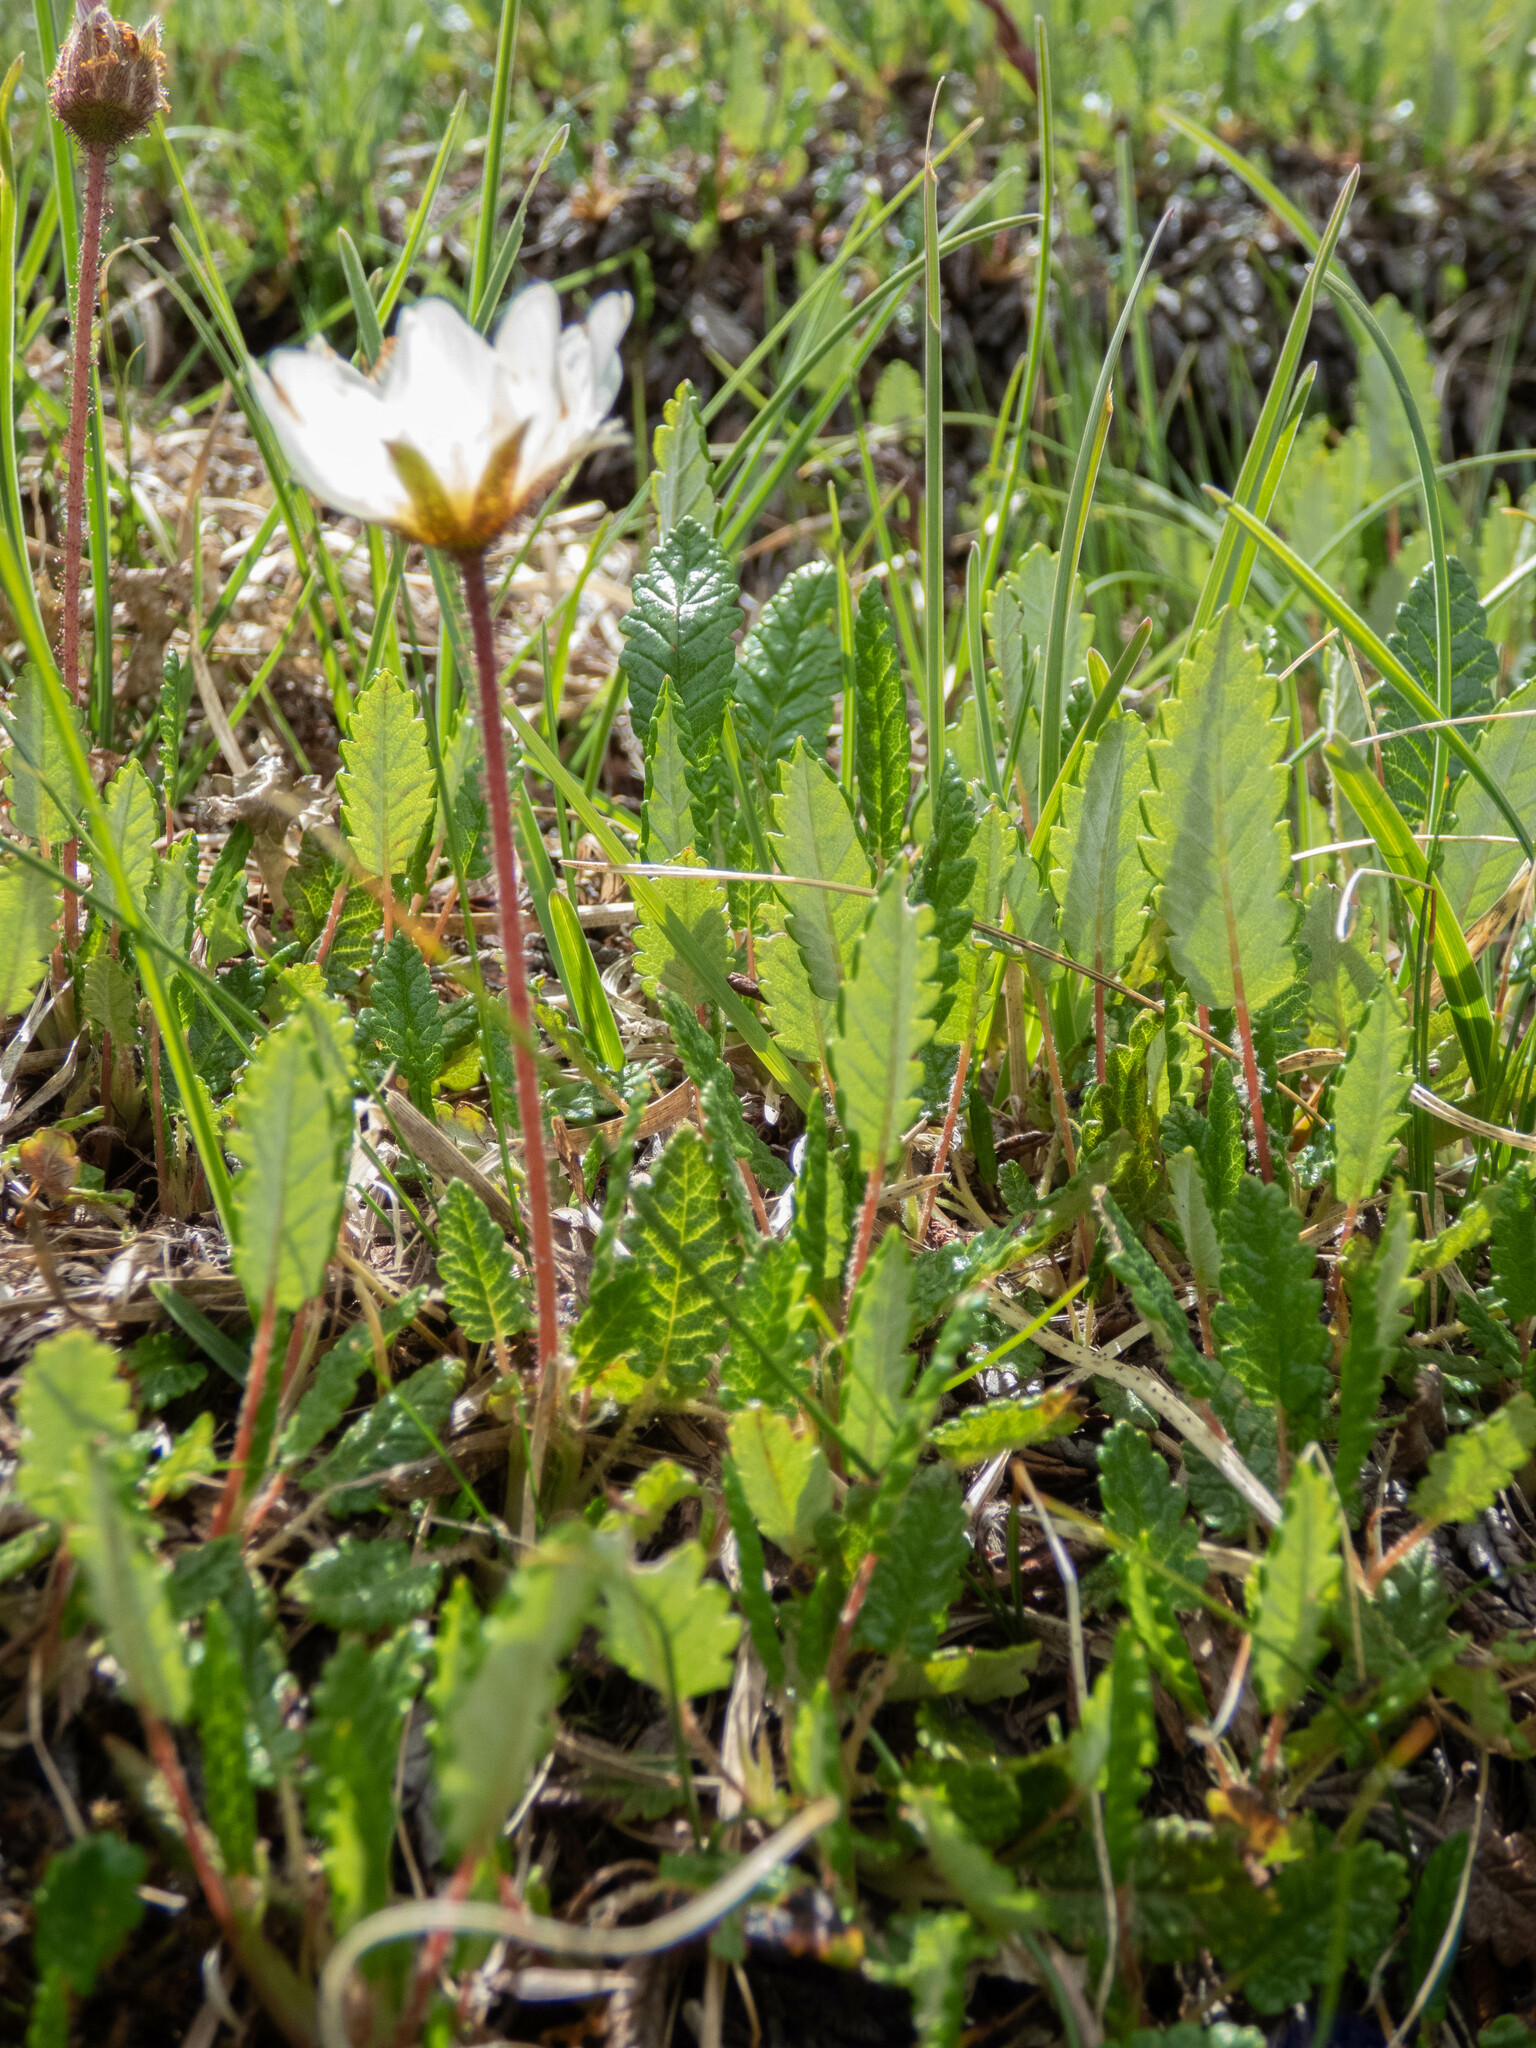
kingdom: Plantae
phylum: Tracheophyta
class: Magnoliopsida
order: Rosales
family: Rosaceae
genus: Dryas
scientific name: Dryas octopetala
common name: Eight-petal mountain-avens
